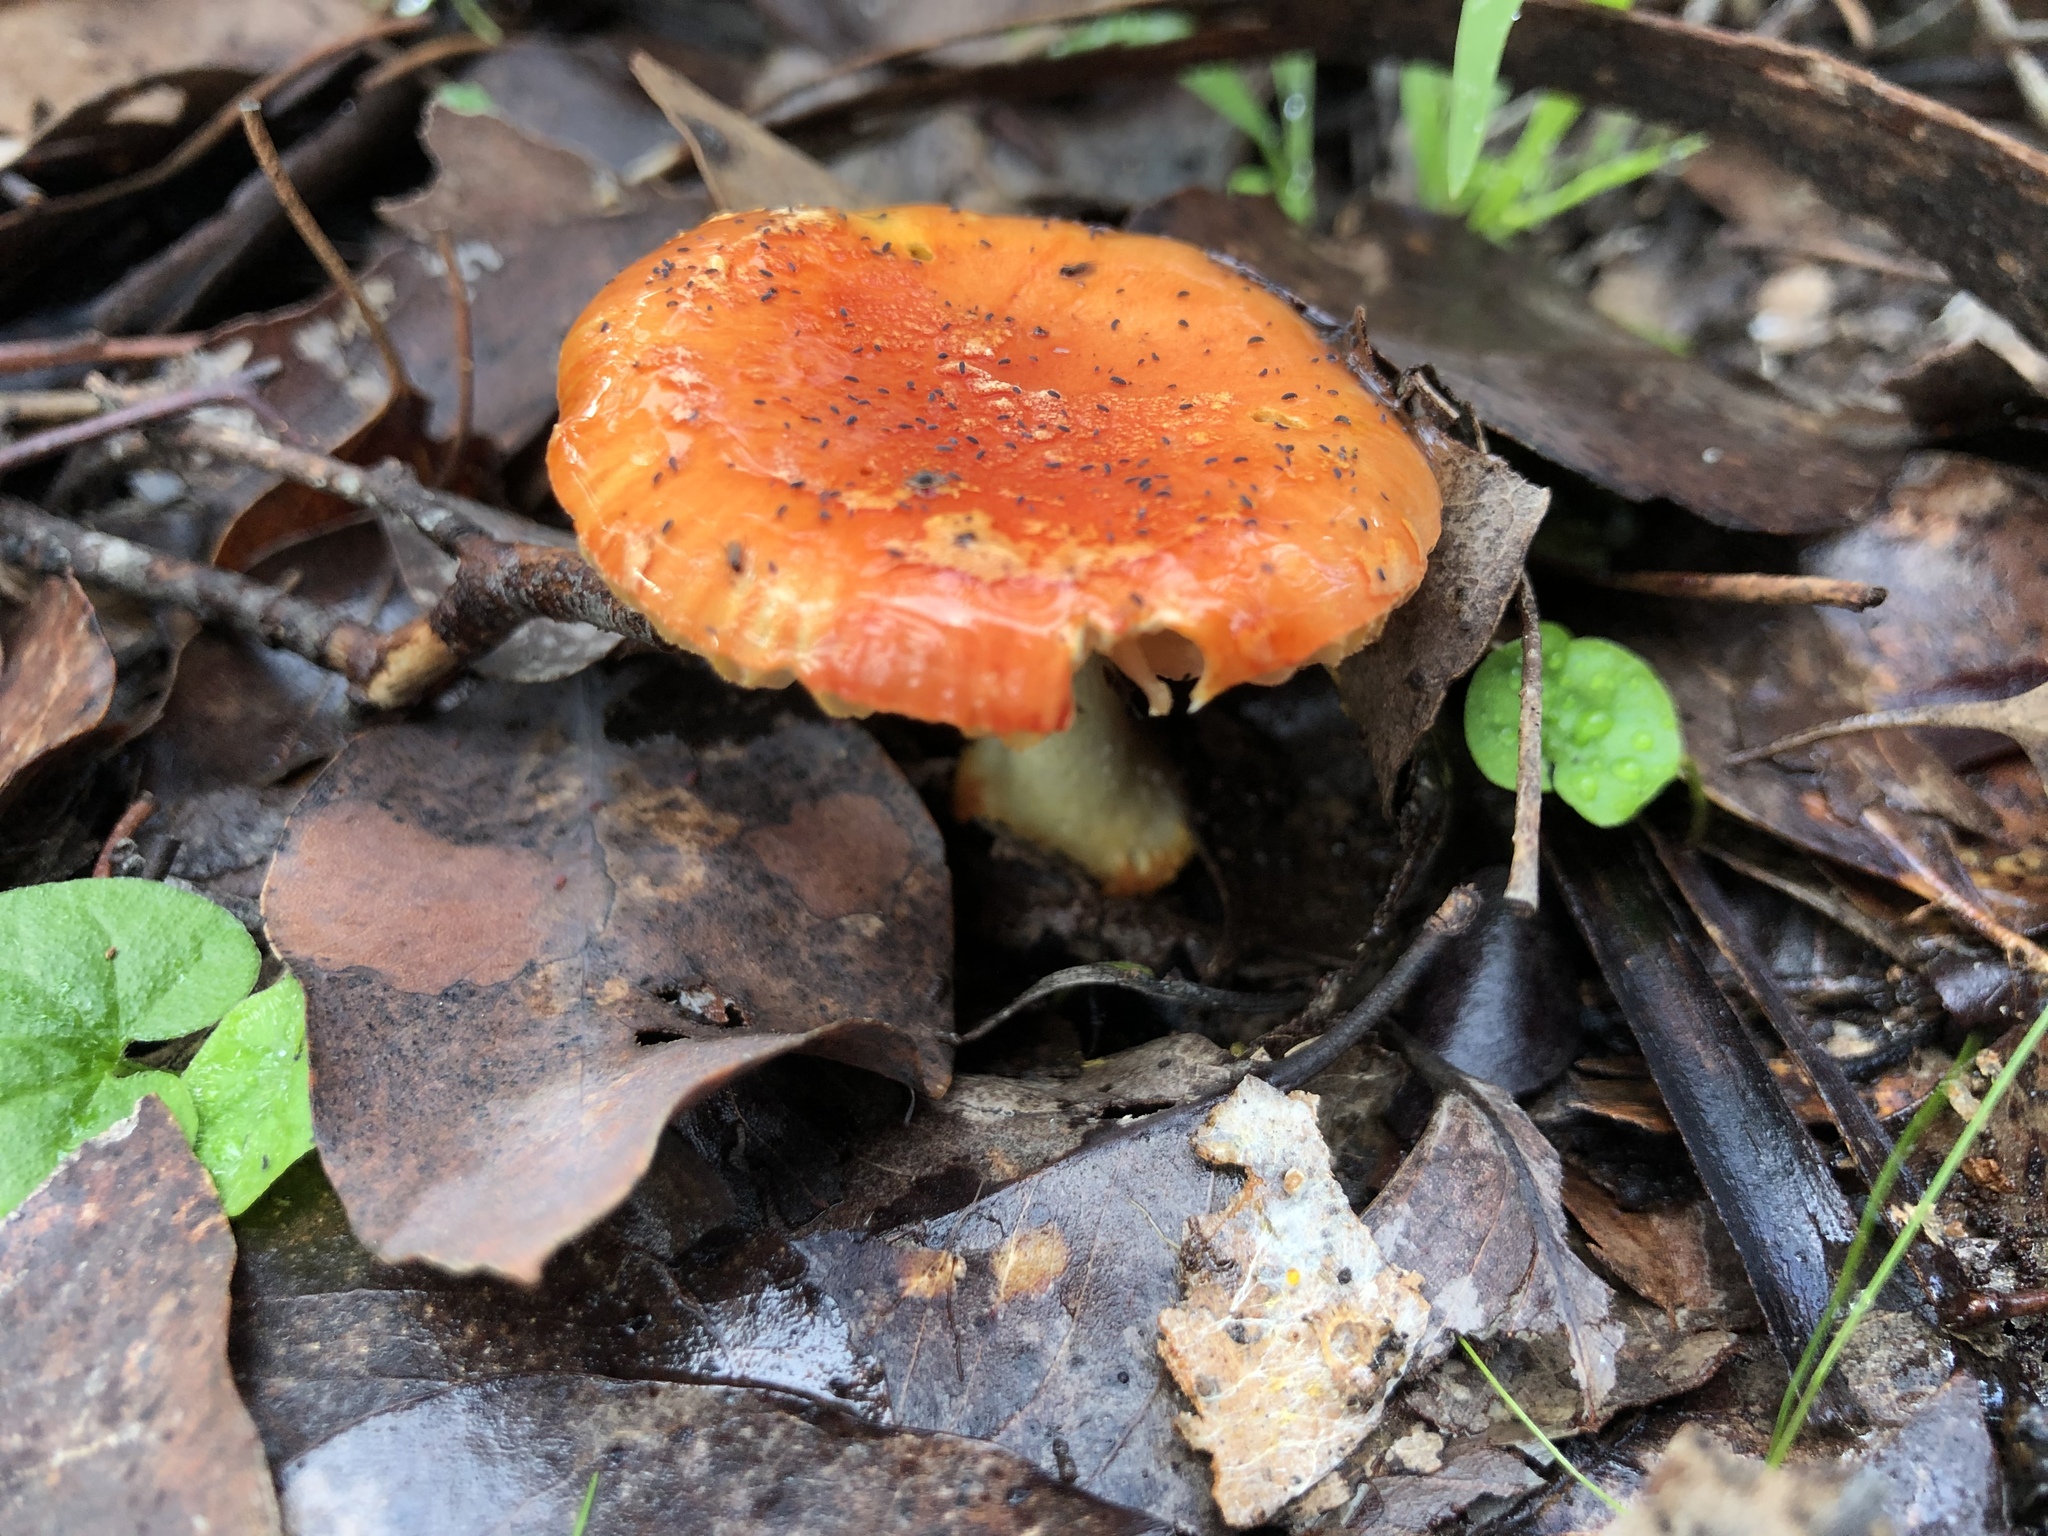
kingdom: Fungi
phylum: Basidiomycota
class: Agaricomycetes
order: Agaricales
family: Amanitaceae
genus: Amanita
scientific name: Amanita xanthocephala
